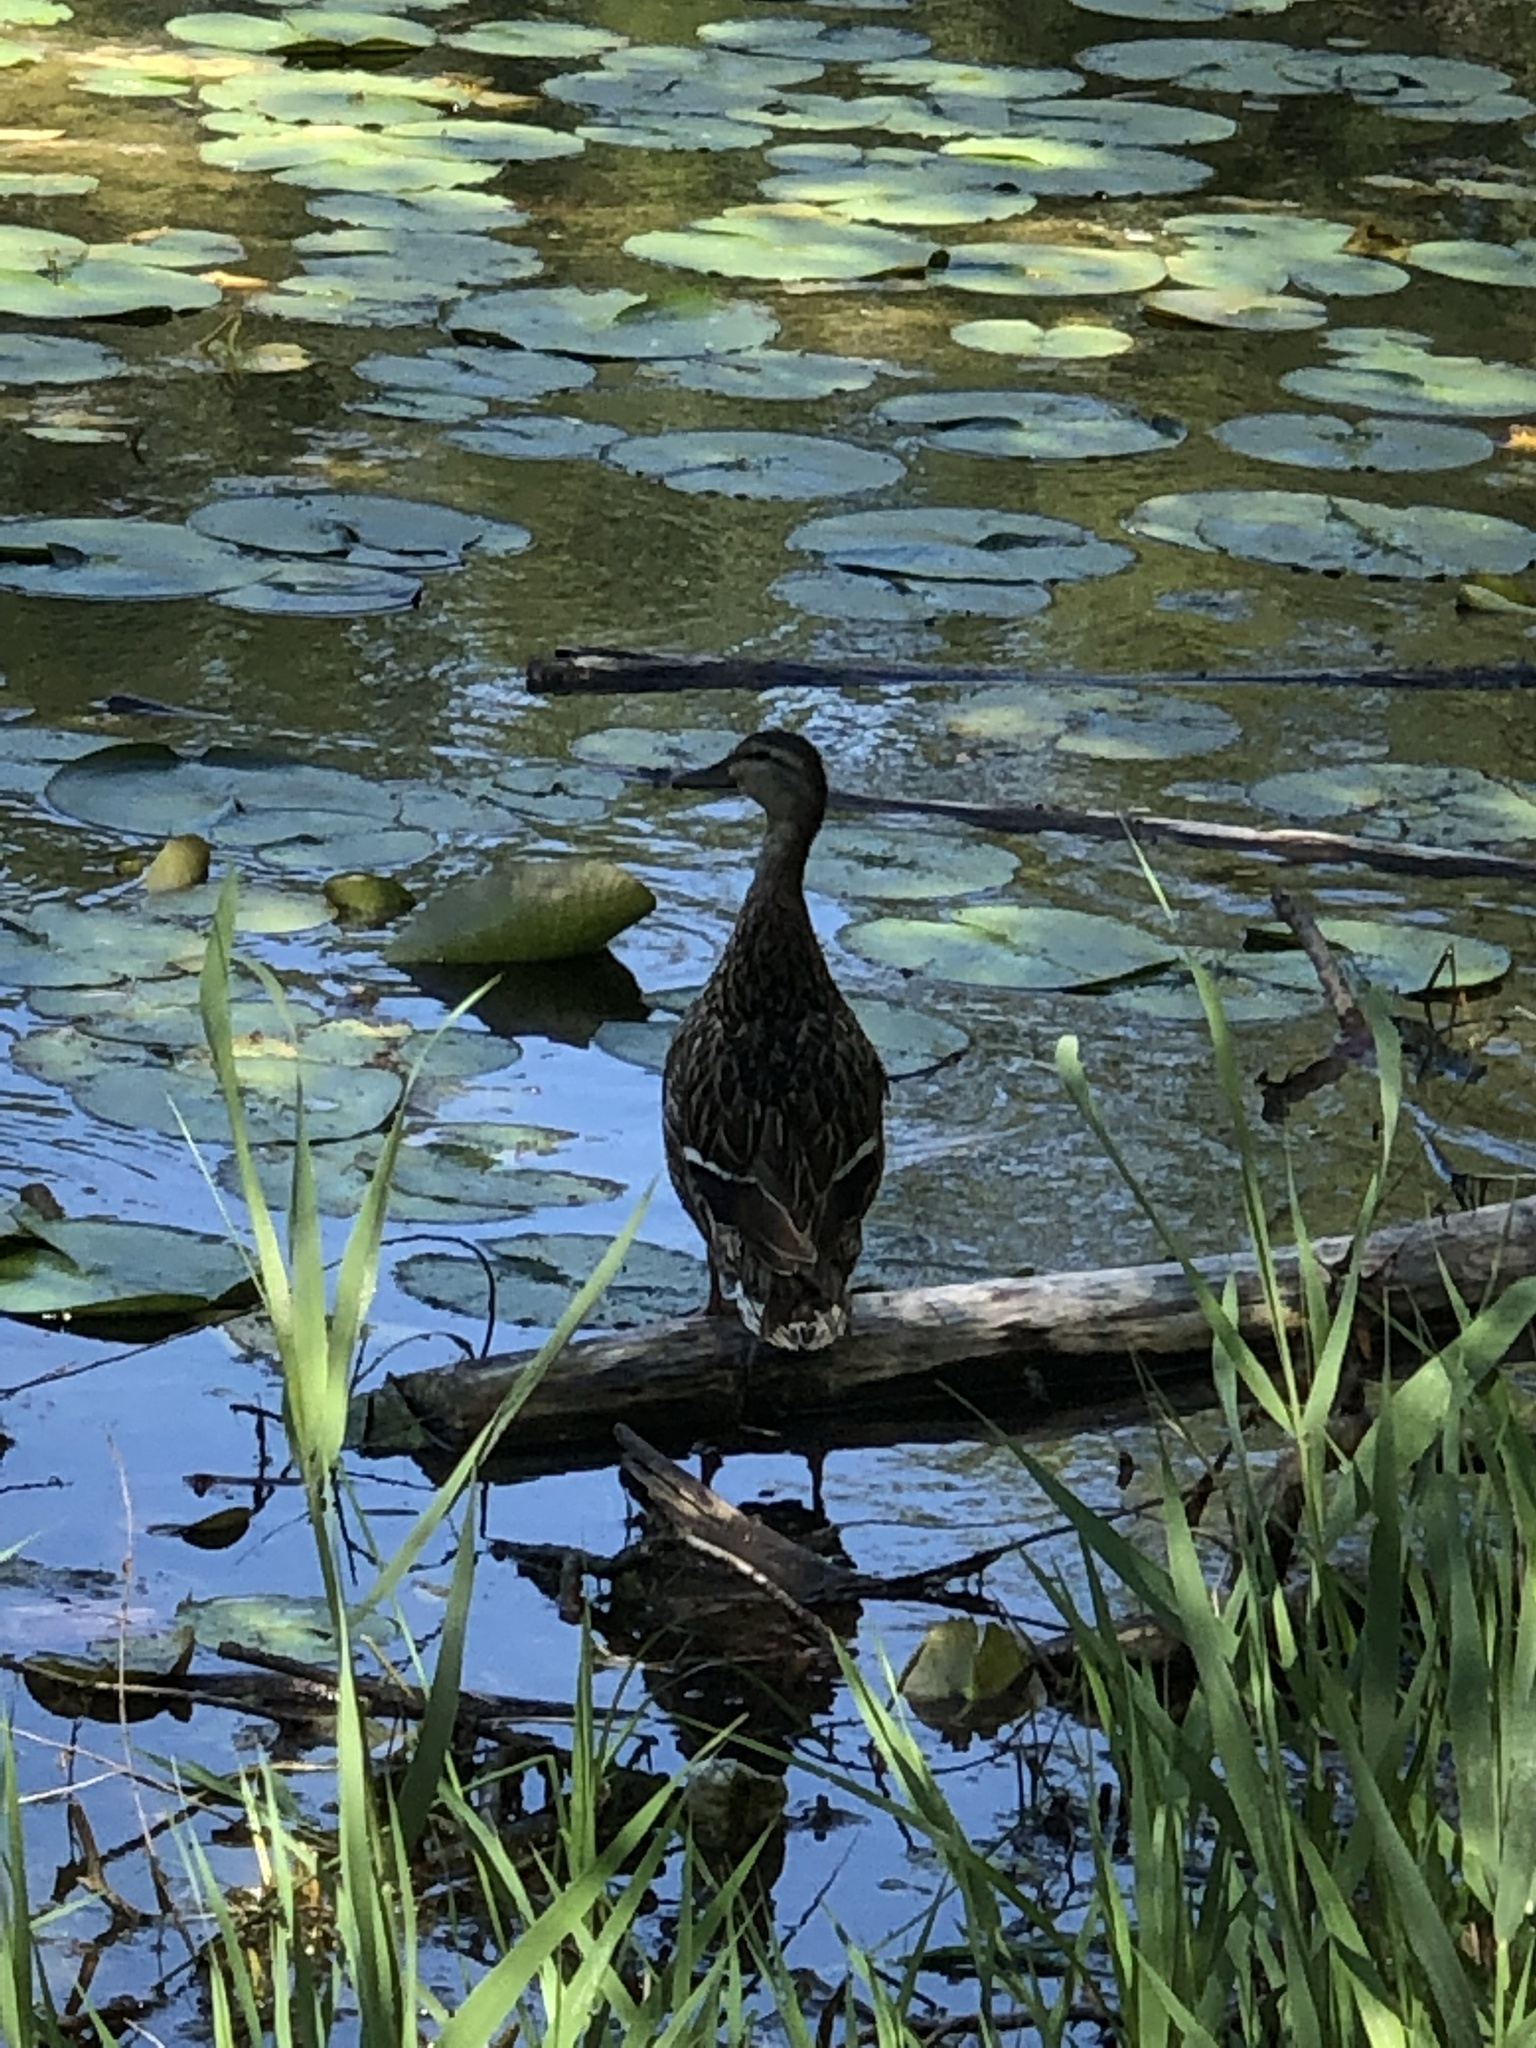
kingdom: Animalia
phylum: Chordata
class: Aves
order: Anseriformes
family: Anatidae
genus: Anas
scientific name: Anas platyrhynchos
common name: Mallard
